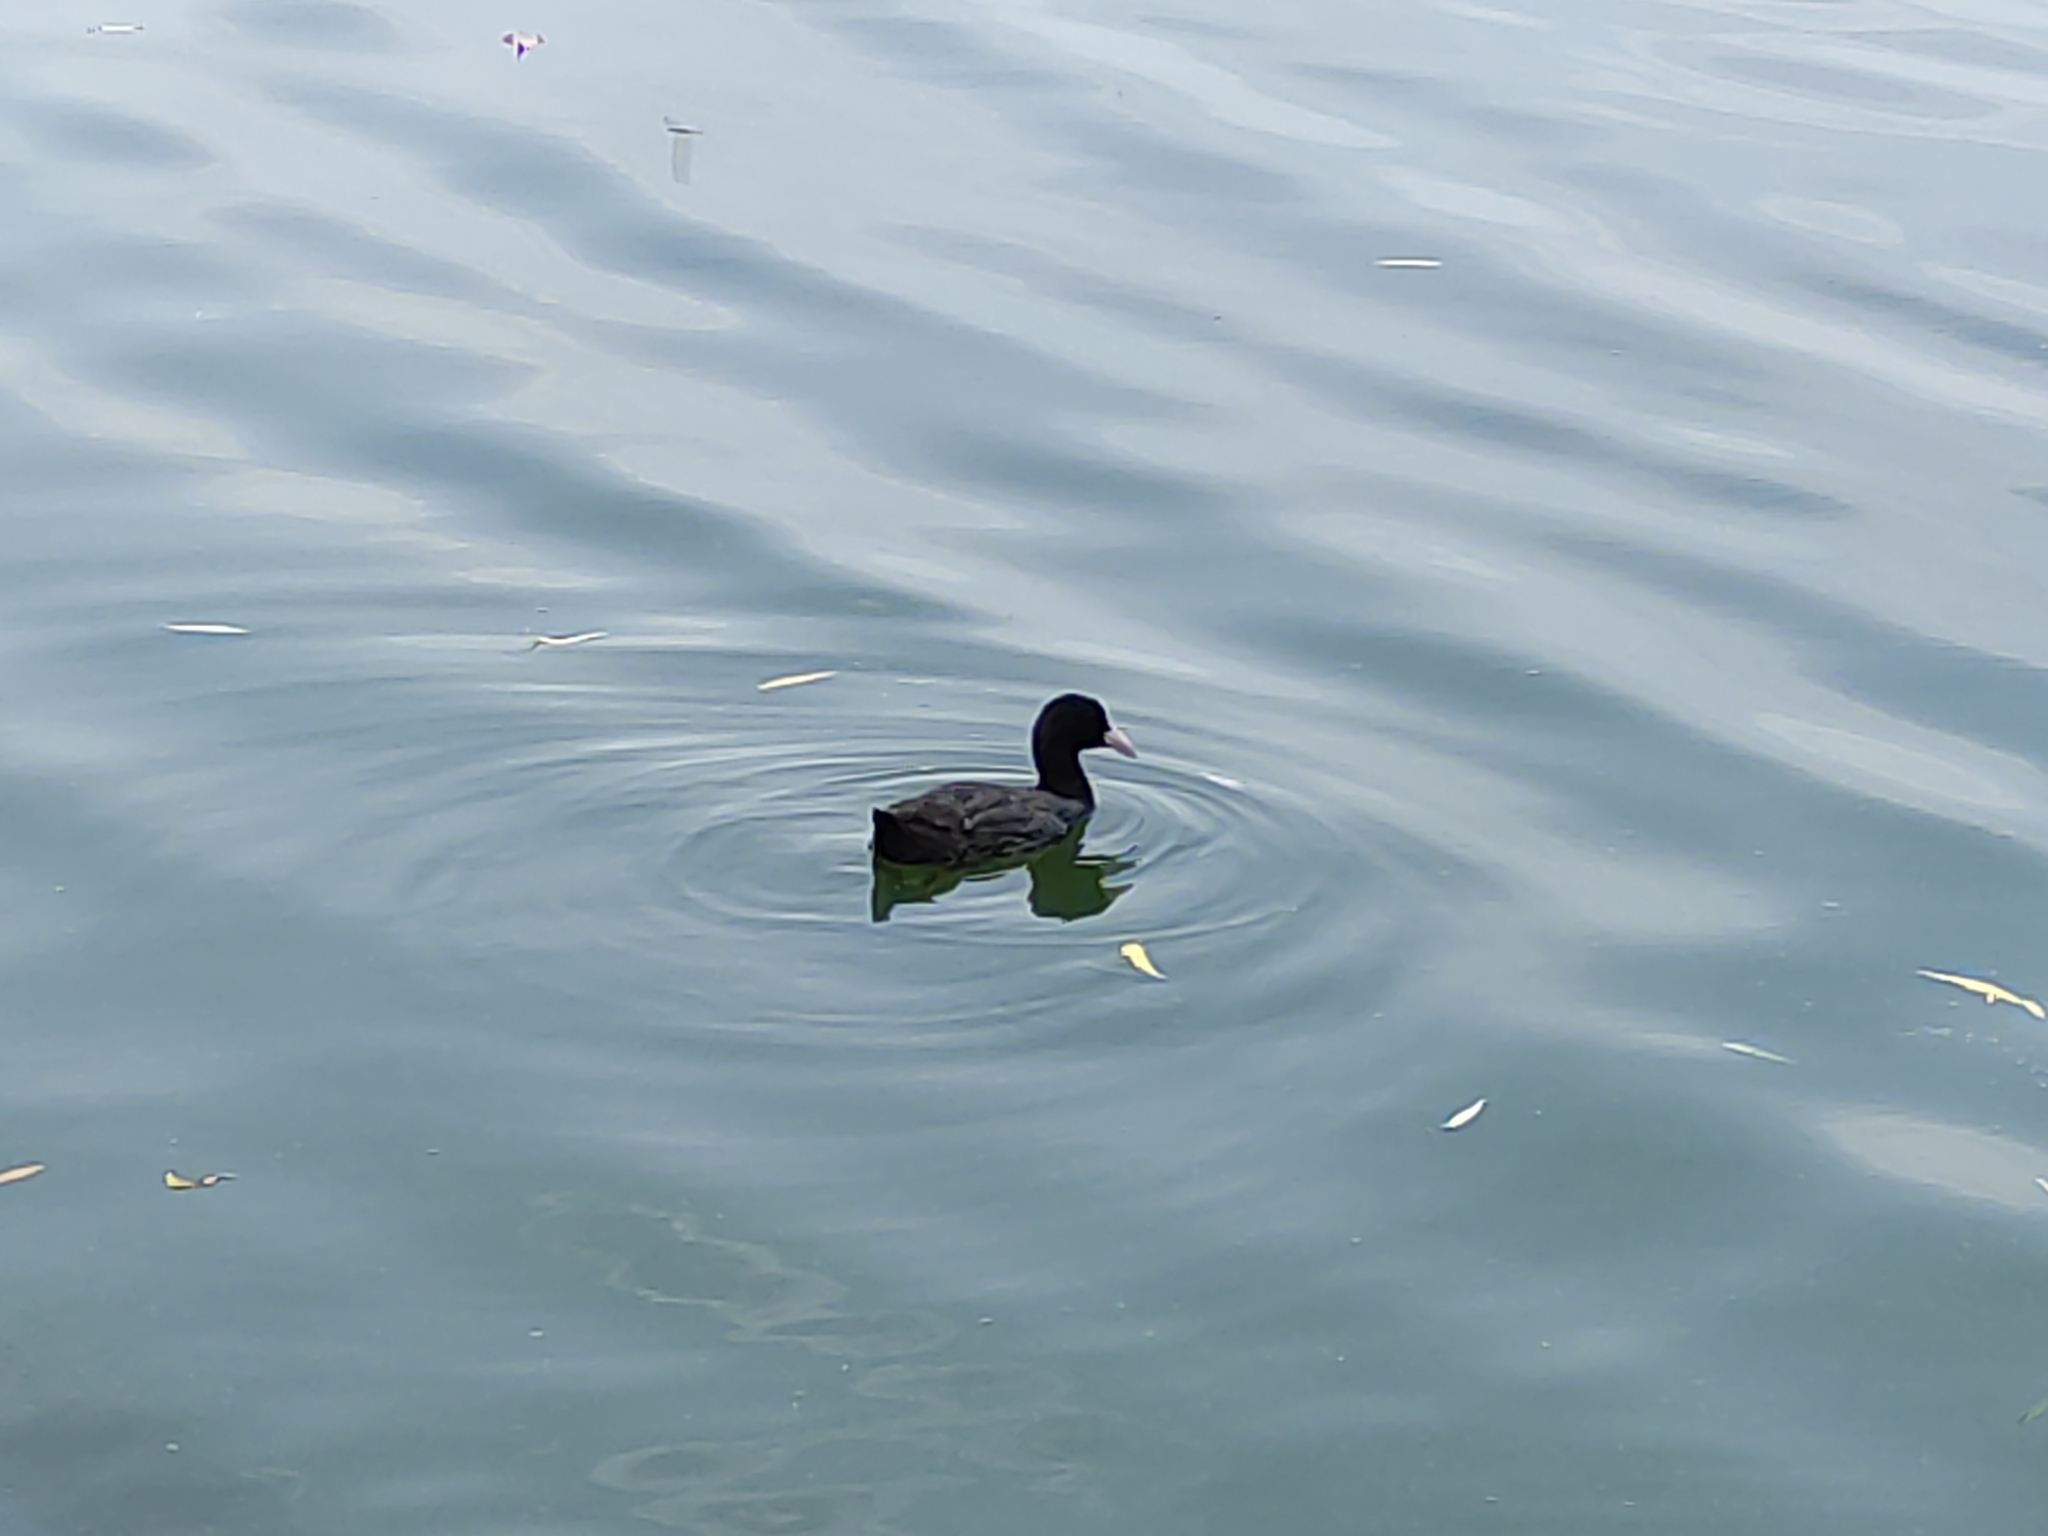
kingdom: Animalia
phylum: Chordata
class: Aves
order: Gruiformes
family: Rallidae
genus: Fulica
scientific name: Fulica atra
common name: Eurasian coot
